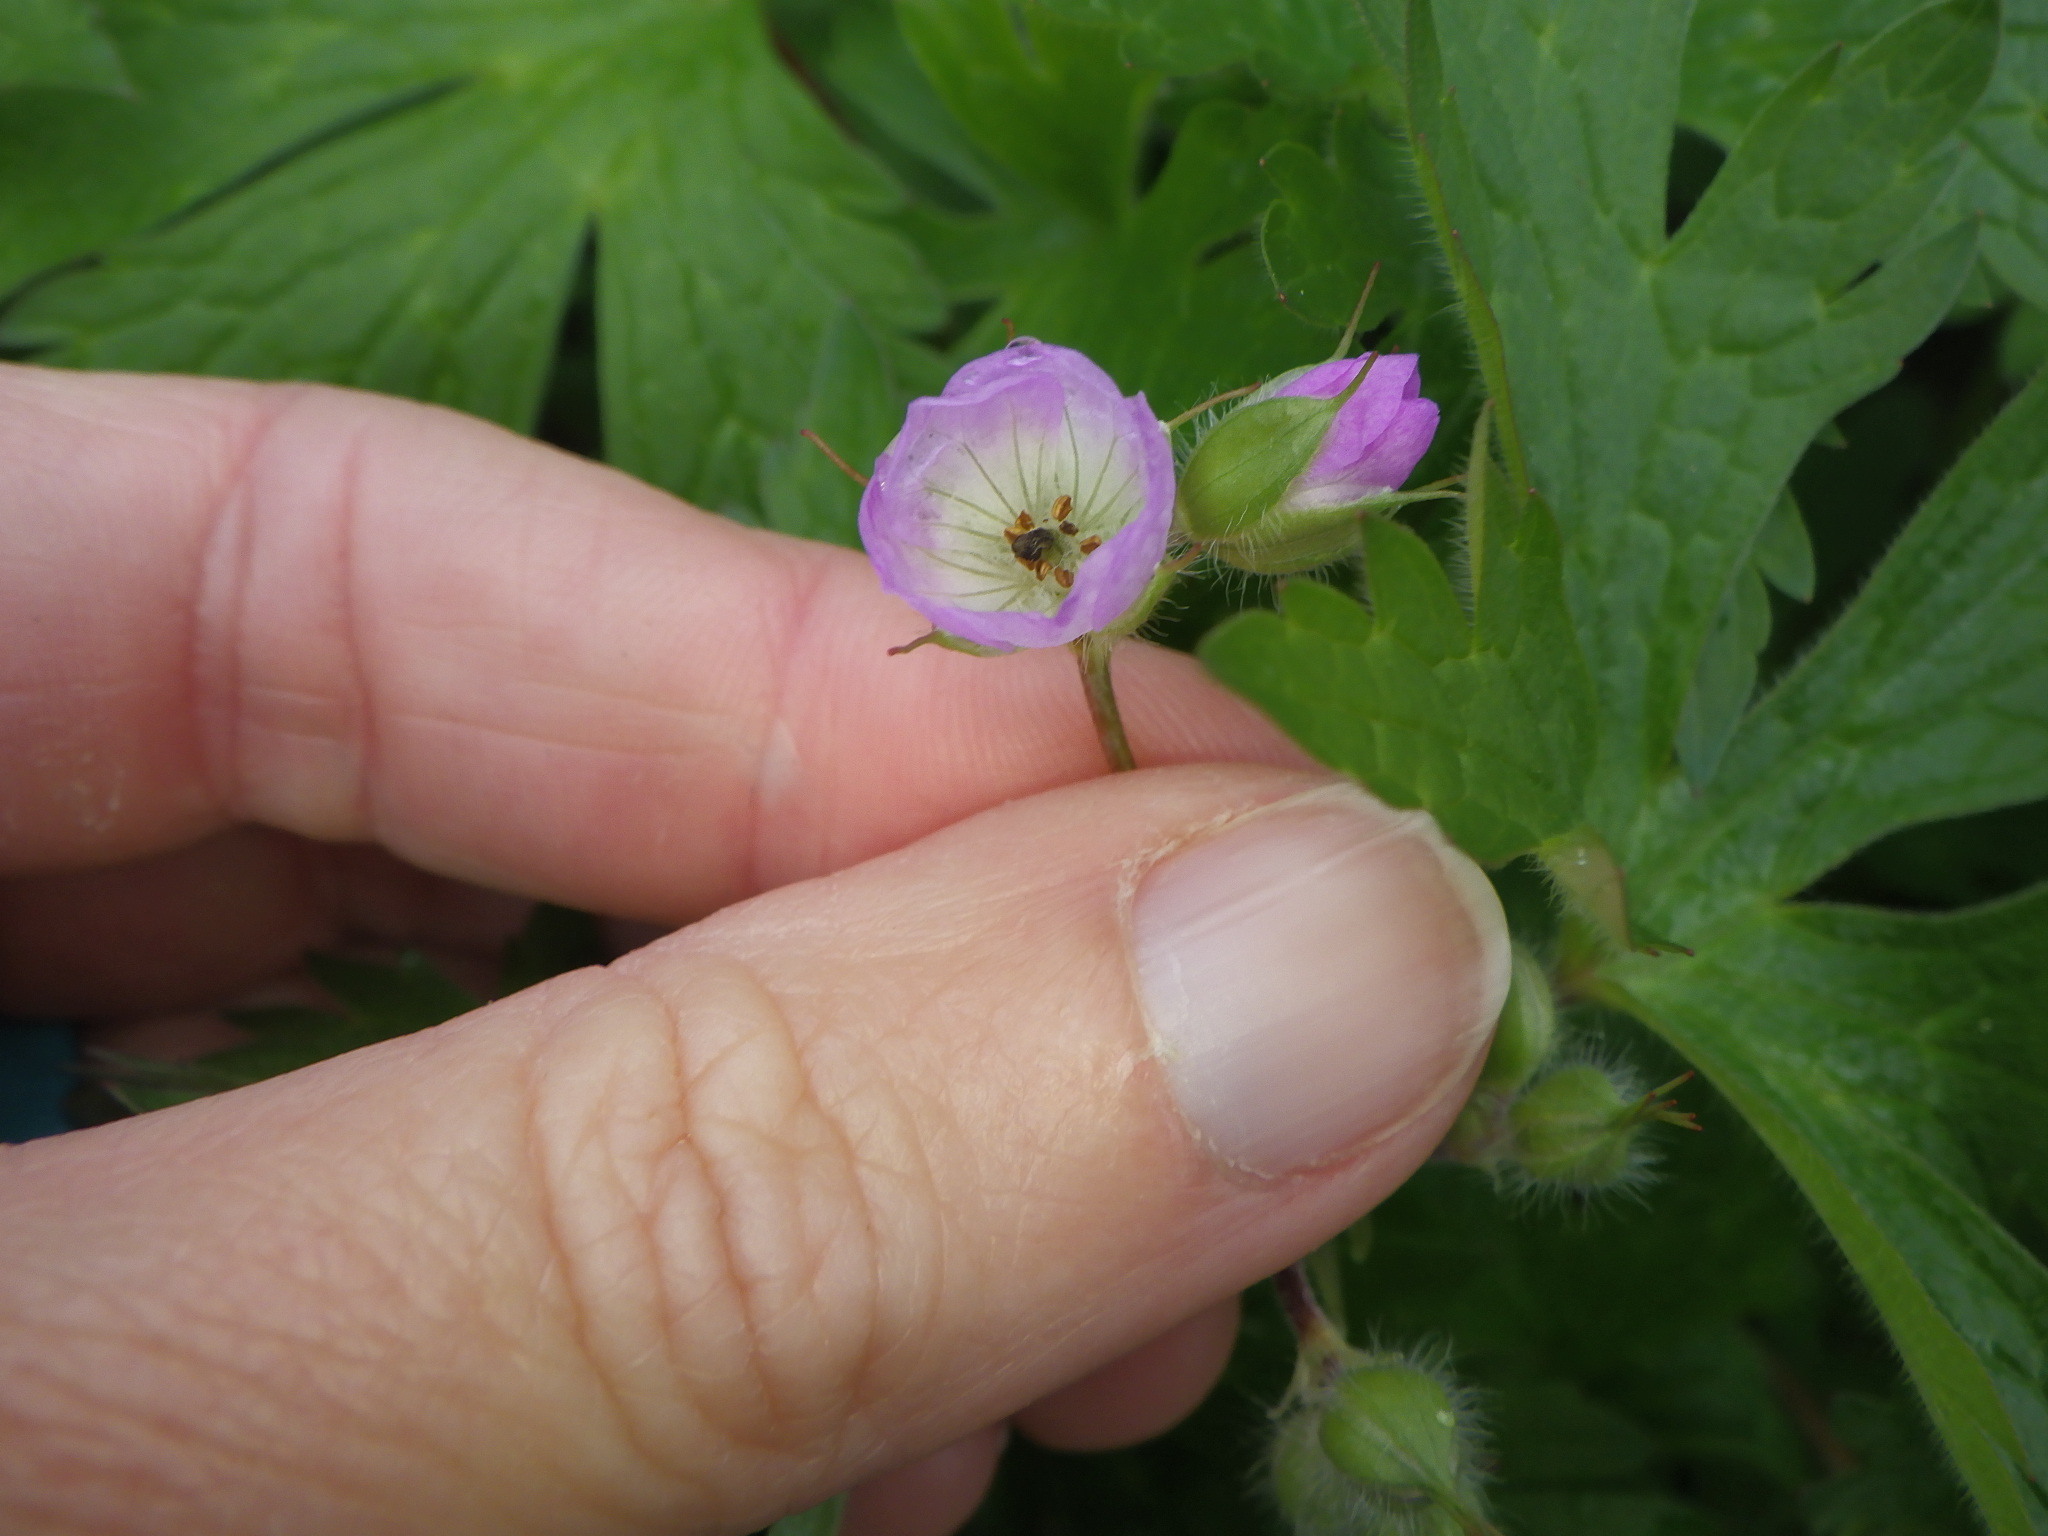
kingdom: Plantae
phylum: Tracheophyta
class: Magnoliopsida
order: Geraniales
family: Geraniaceae
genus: Geranium
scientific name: Geranium maculatum
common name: Spotted geranium
